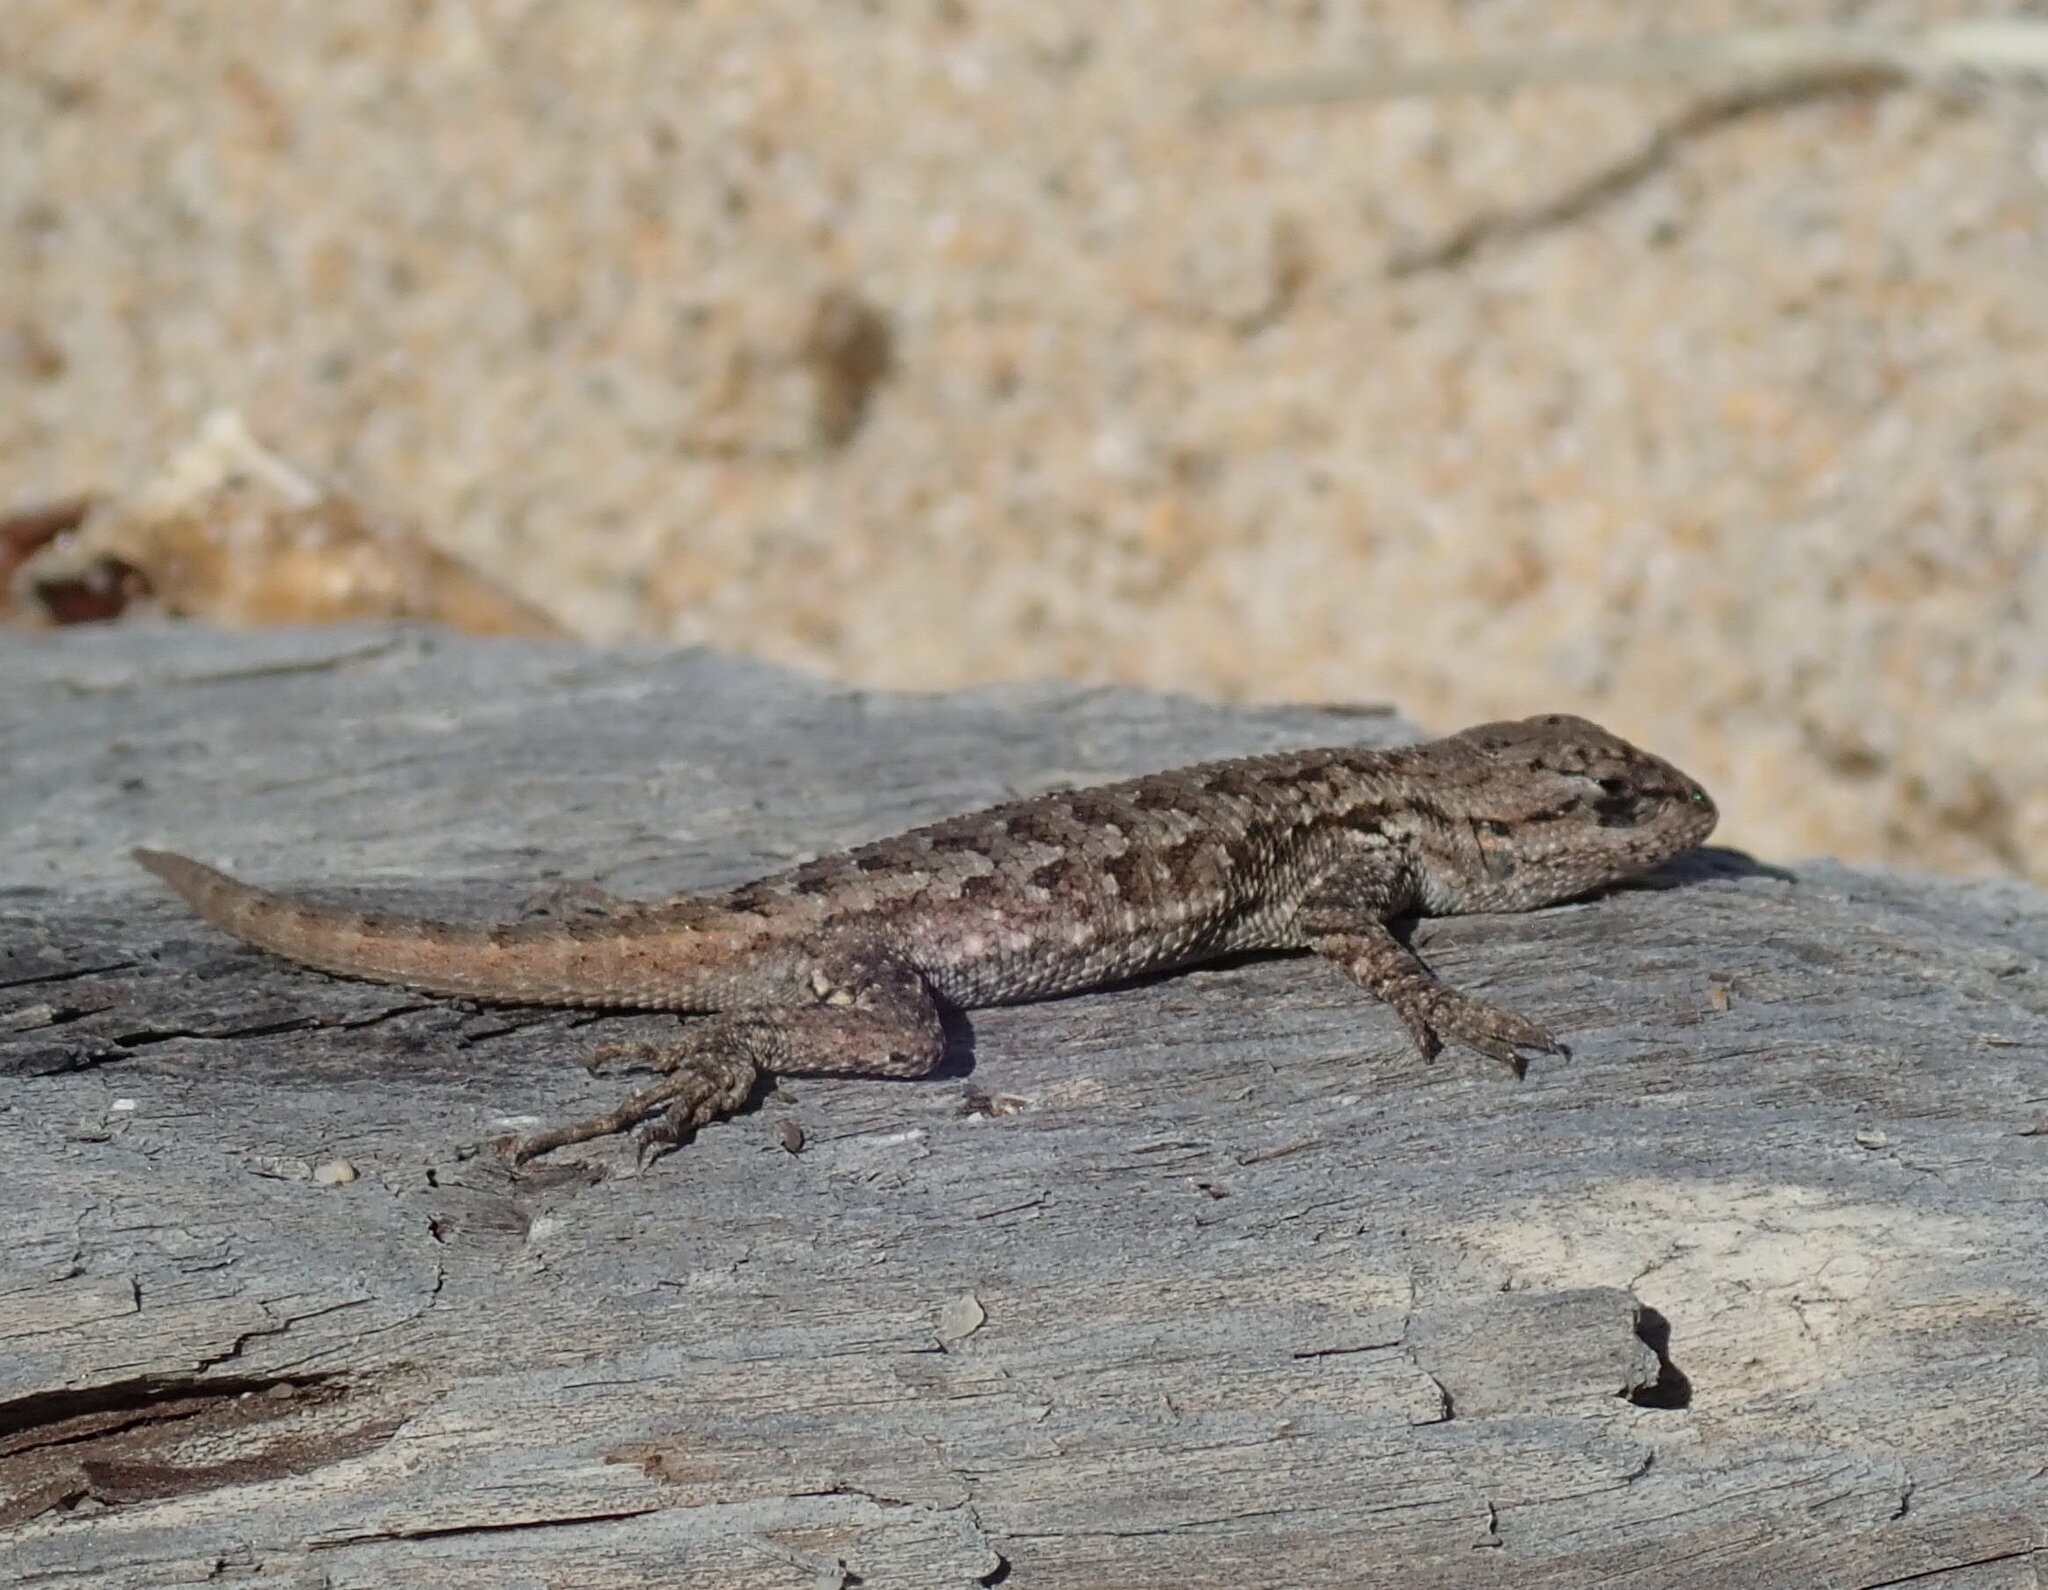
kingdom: Animalia
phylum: Chordata
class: Squamata
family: Phrynosomatidae
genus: Sceloporus
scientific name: Sceloporus occidentalis
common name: Western fence lizard
